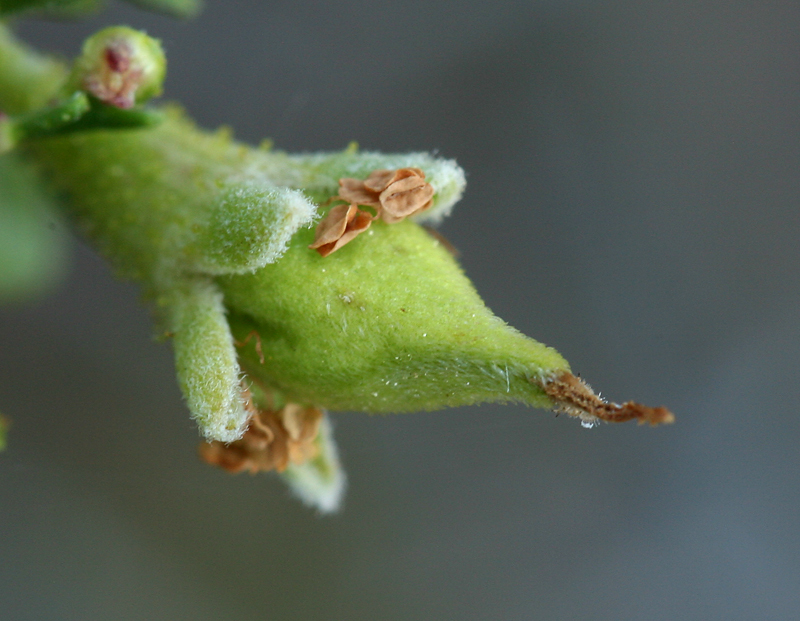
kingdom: Plantae
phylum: Tracheophyta
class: Magnoliopsida
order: Rosales
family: Rosaceae
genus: Purshia
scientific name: Purshia tridentata
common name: Antelope bitterbrush
